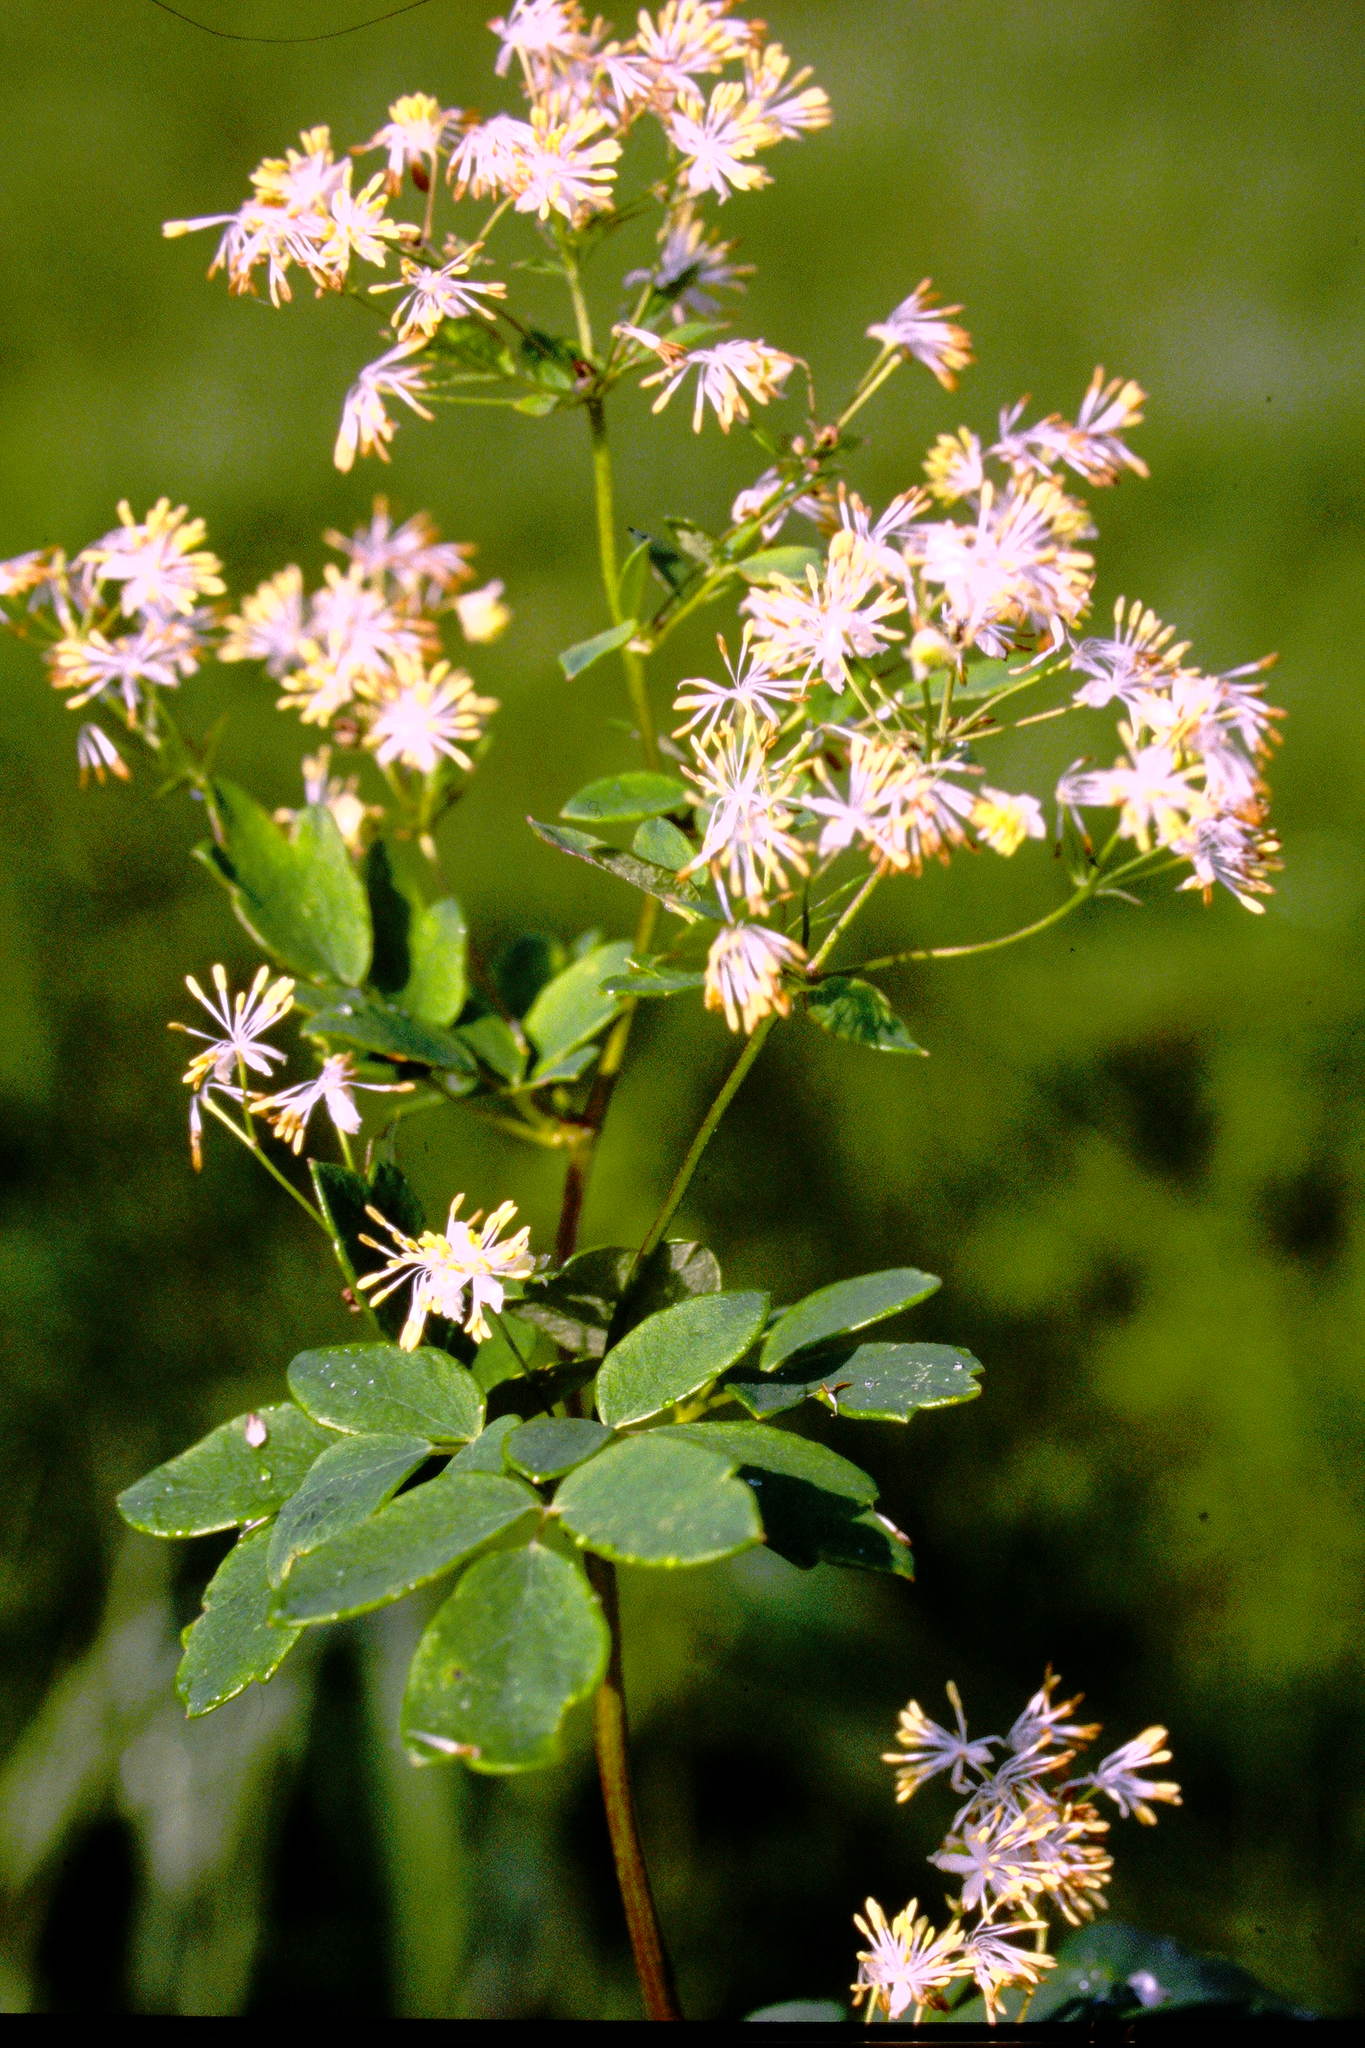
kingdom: Plantae
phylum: Tracheophyta
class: Magnoliopsida
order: Ranunculales
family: Ranunculaceae
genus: Thalictrum
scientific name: Thalictrum dasycarpum
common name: Purple meadow-rue
